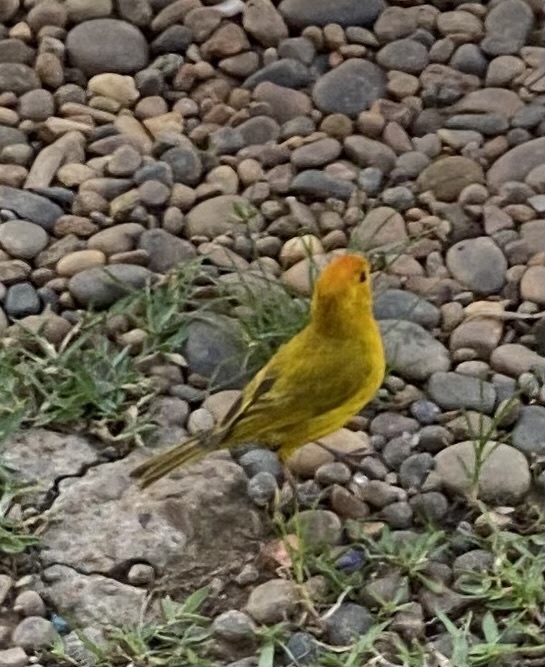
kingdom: Animalia
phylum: Chordata
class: Aves
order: Passeriformes
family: Thraupidae
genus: Sicalis
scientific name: Sicalis flaveola
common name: Saffron finch
